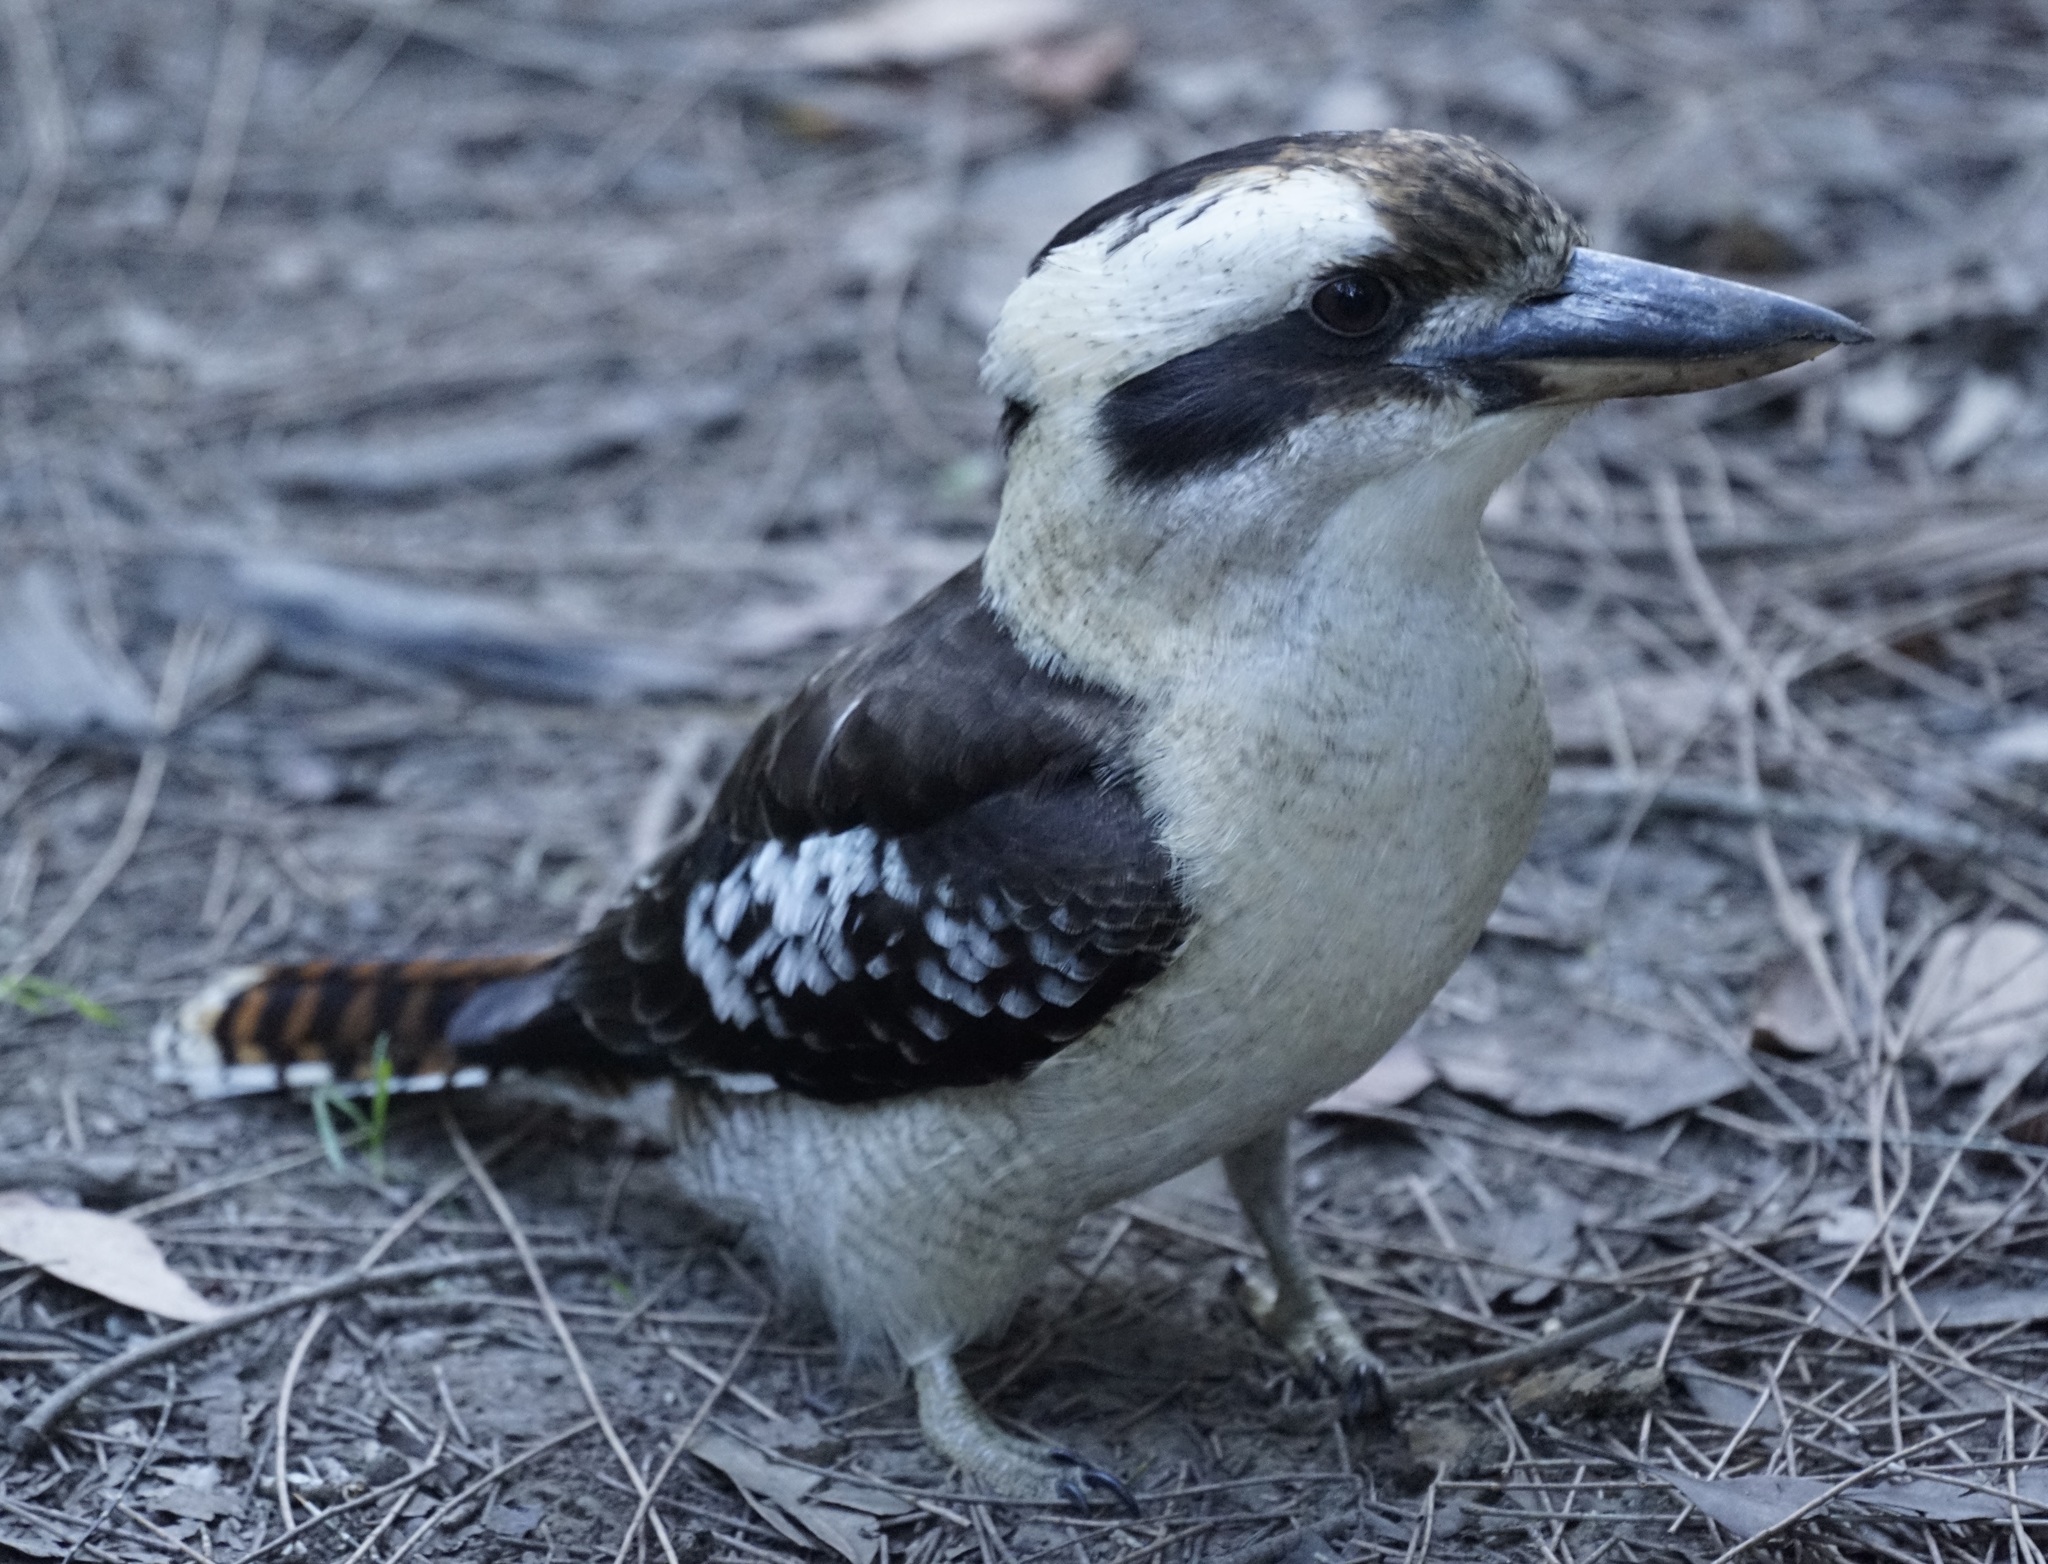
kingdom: Animalia
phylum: Chordata
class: Aves
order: Coraciiformes
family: Alcedinidae
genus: Dacelo
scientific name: Dacelo novaeguineae
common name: Laughing kookaburra
